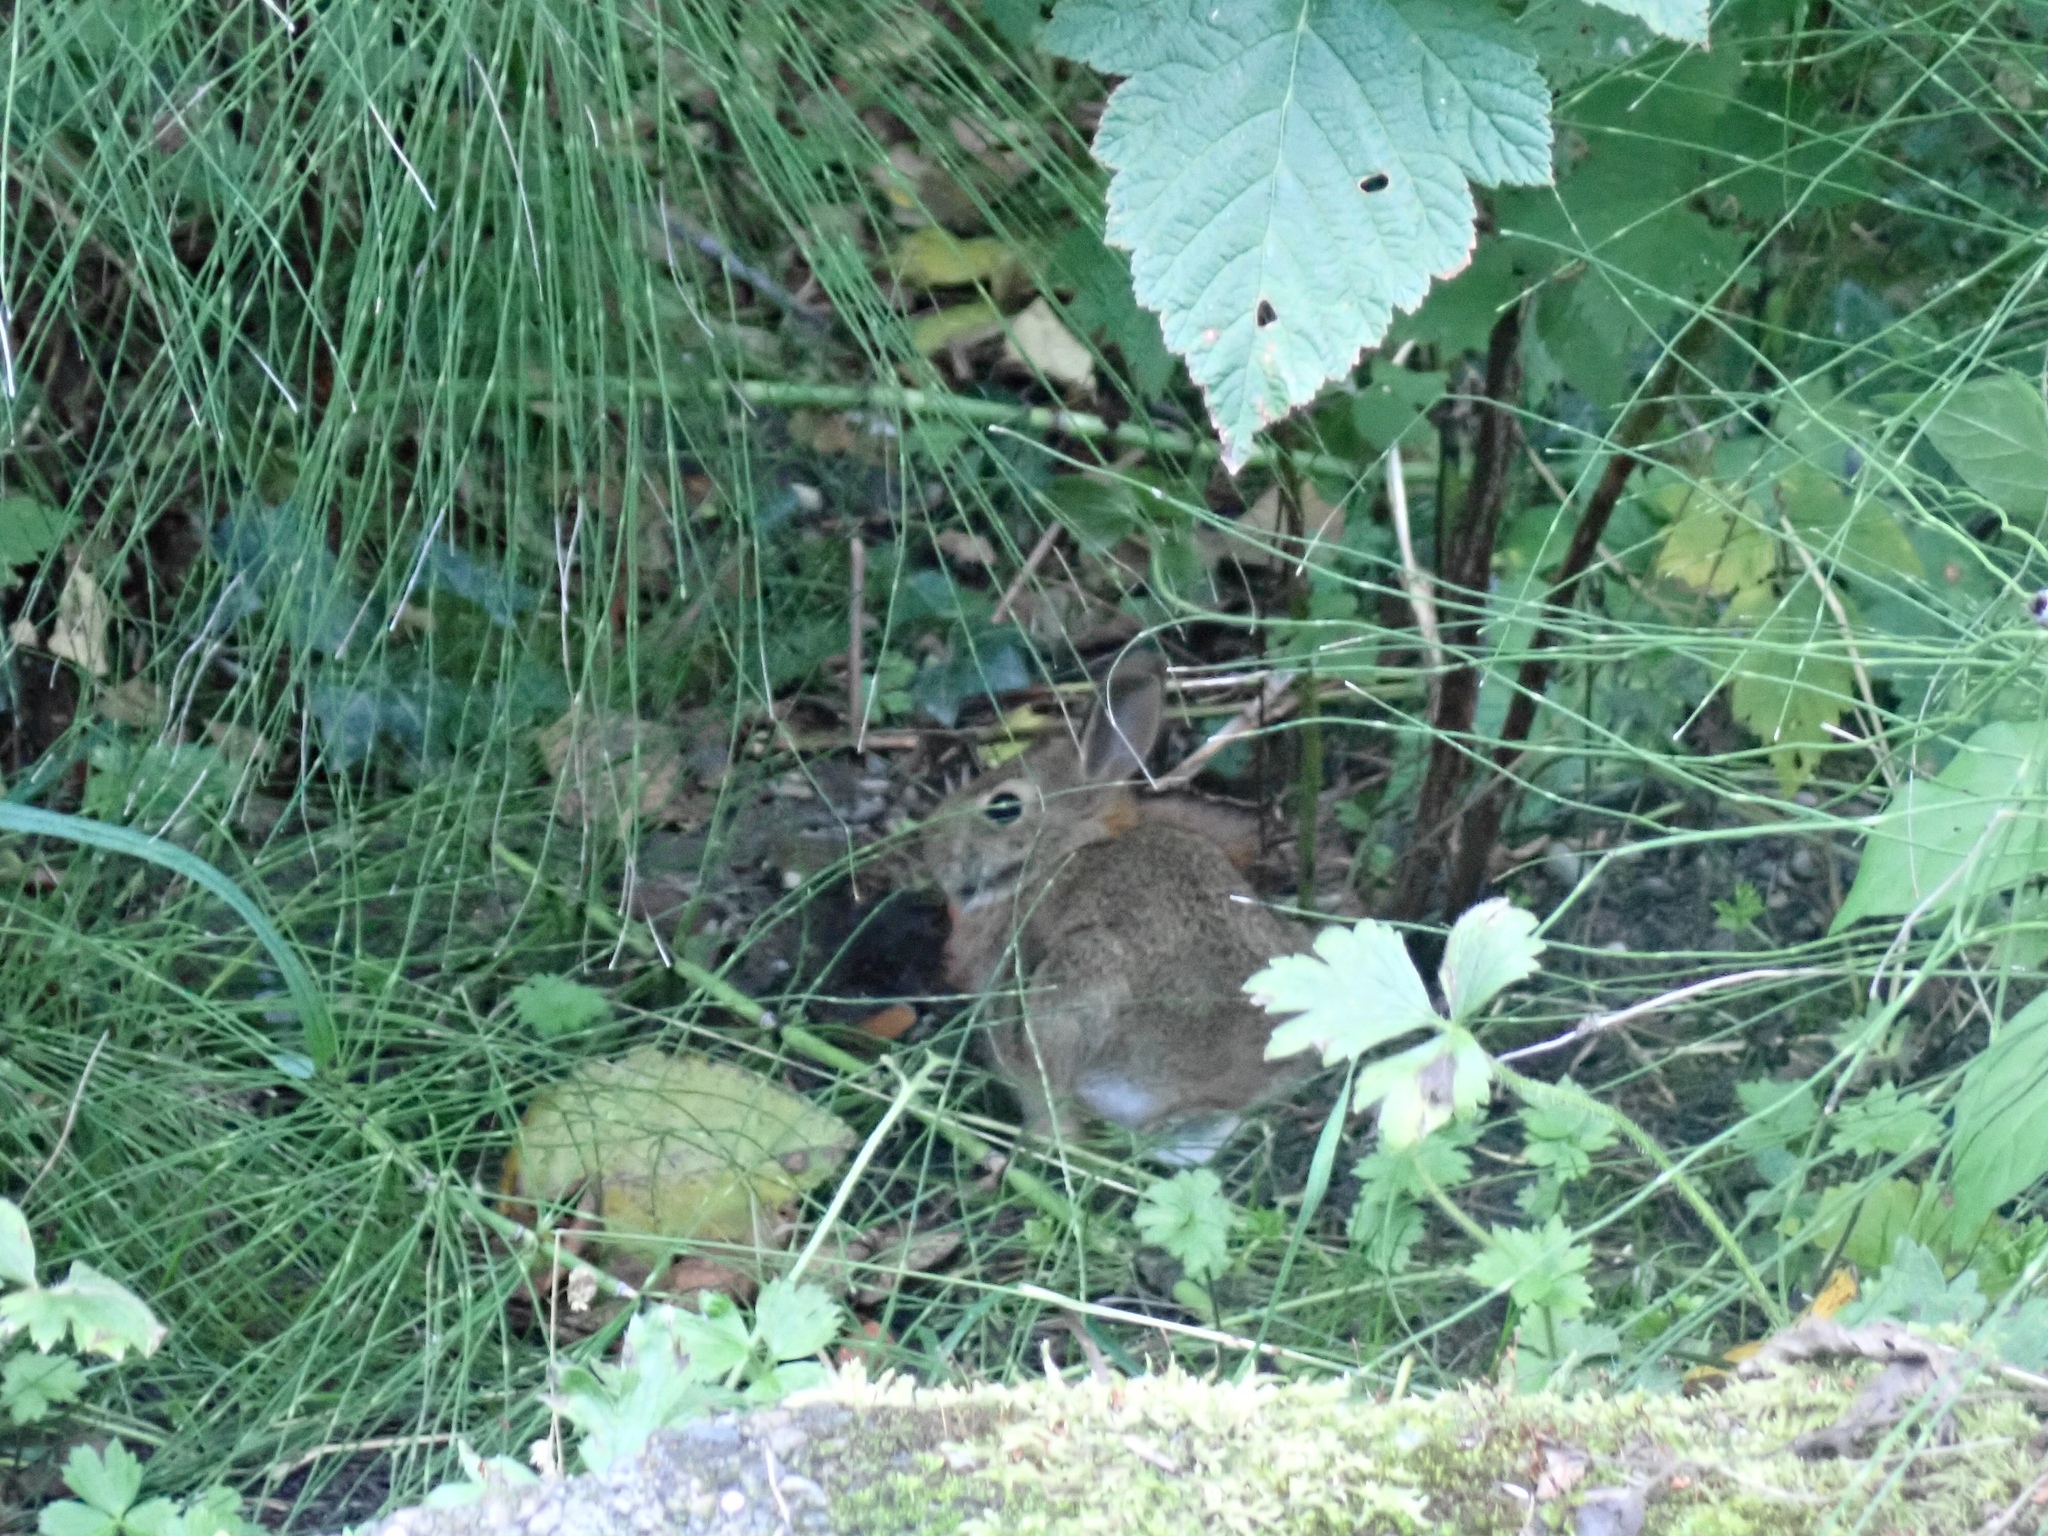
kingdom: Animalia
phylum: Chordata
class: Mammalia
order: Lagomorpha
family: Leporidae
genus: Sylvilagus
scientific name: Sylvilagus floridanus
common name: Eastern cottontail
